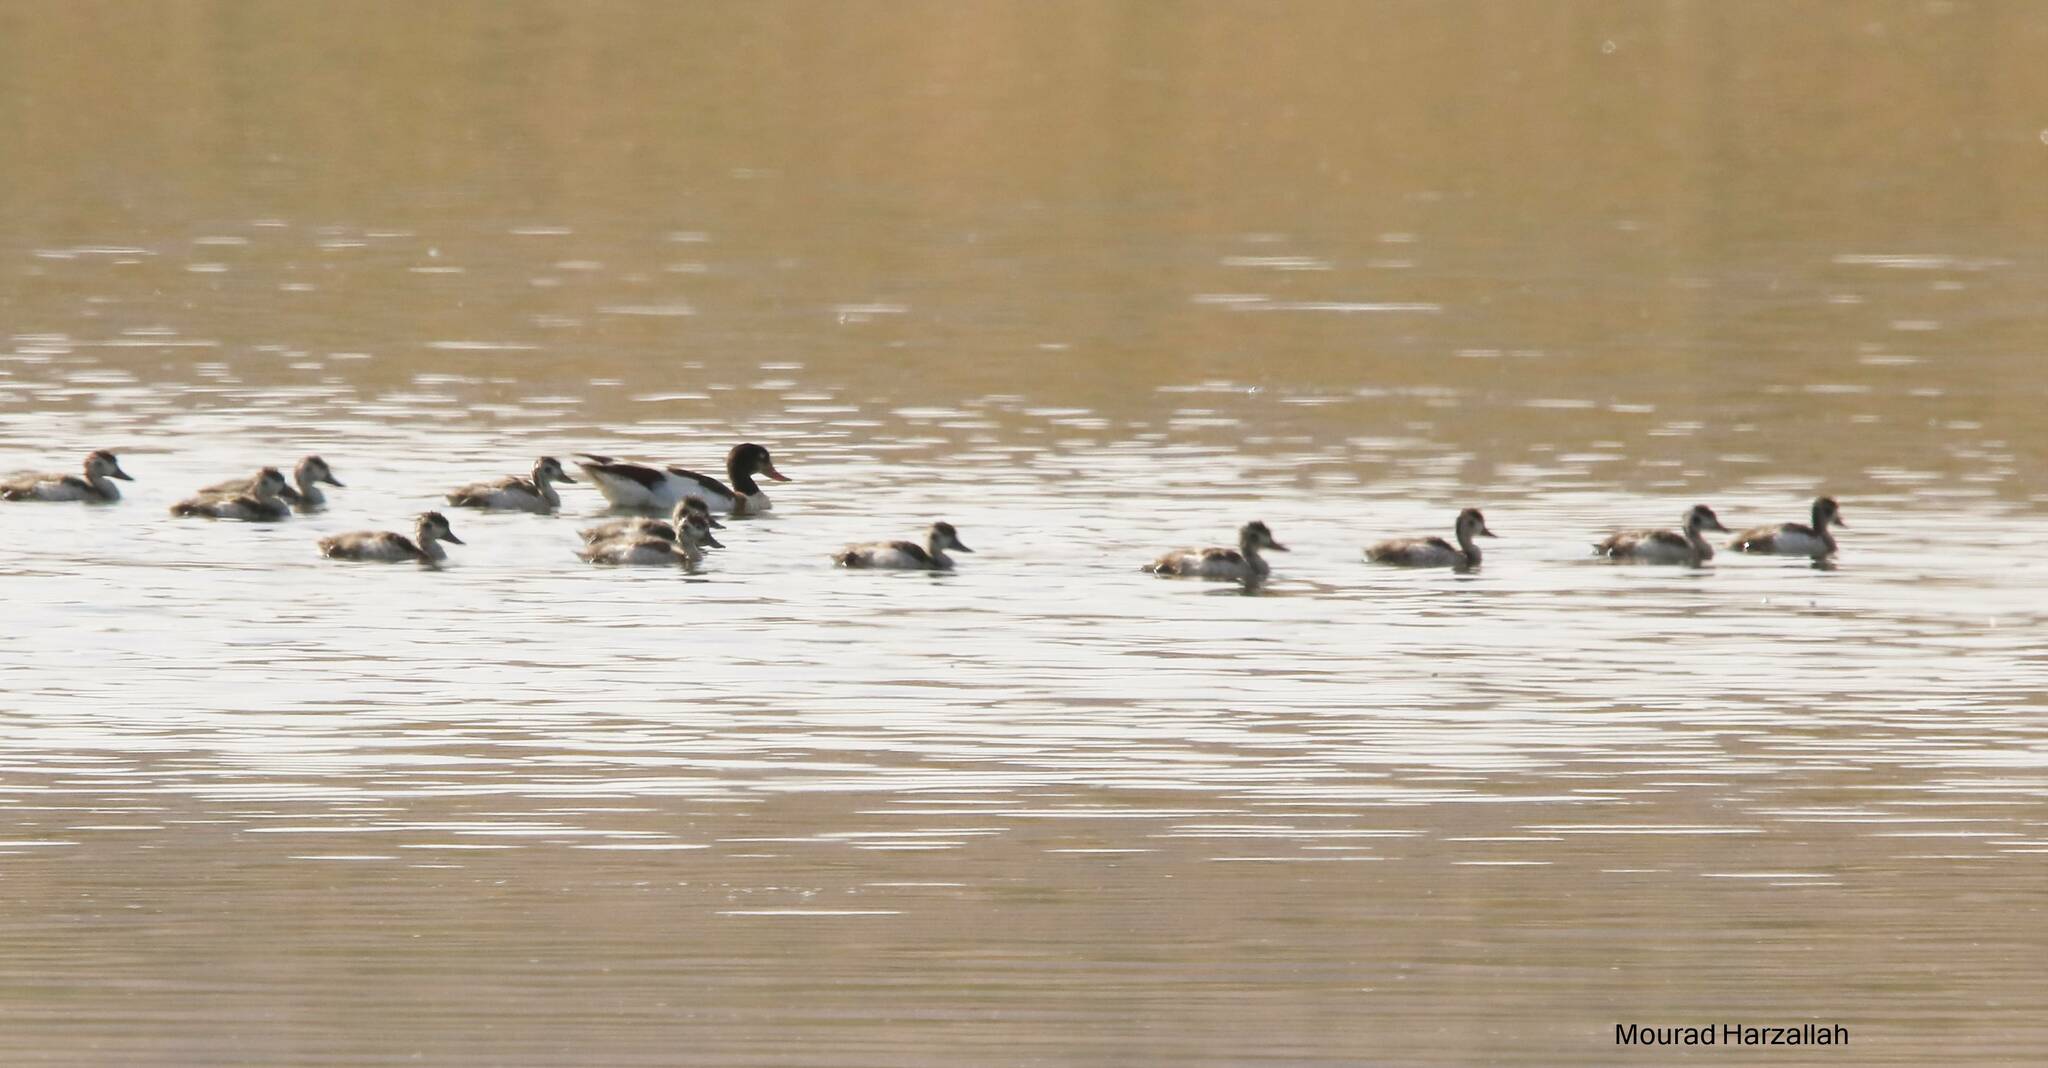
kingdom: Animalia
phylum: Chordata
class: Aves
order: Anseriformes
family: Anatidae
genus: Tadorna
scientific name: Tadorna tadorna
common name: Common shelduck
